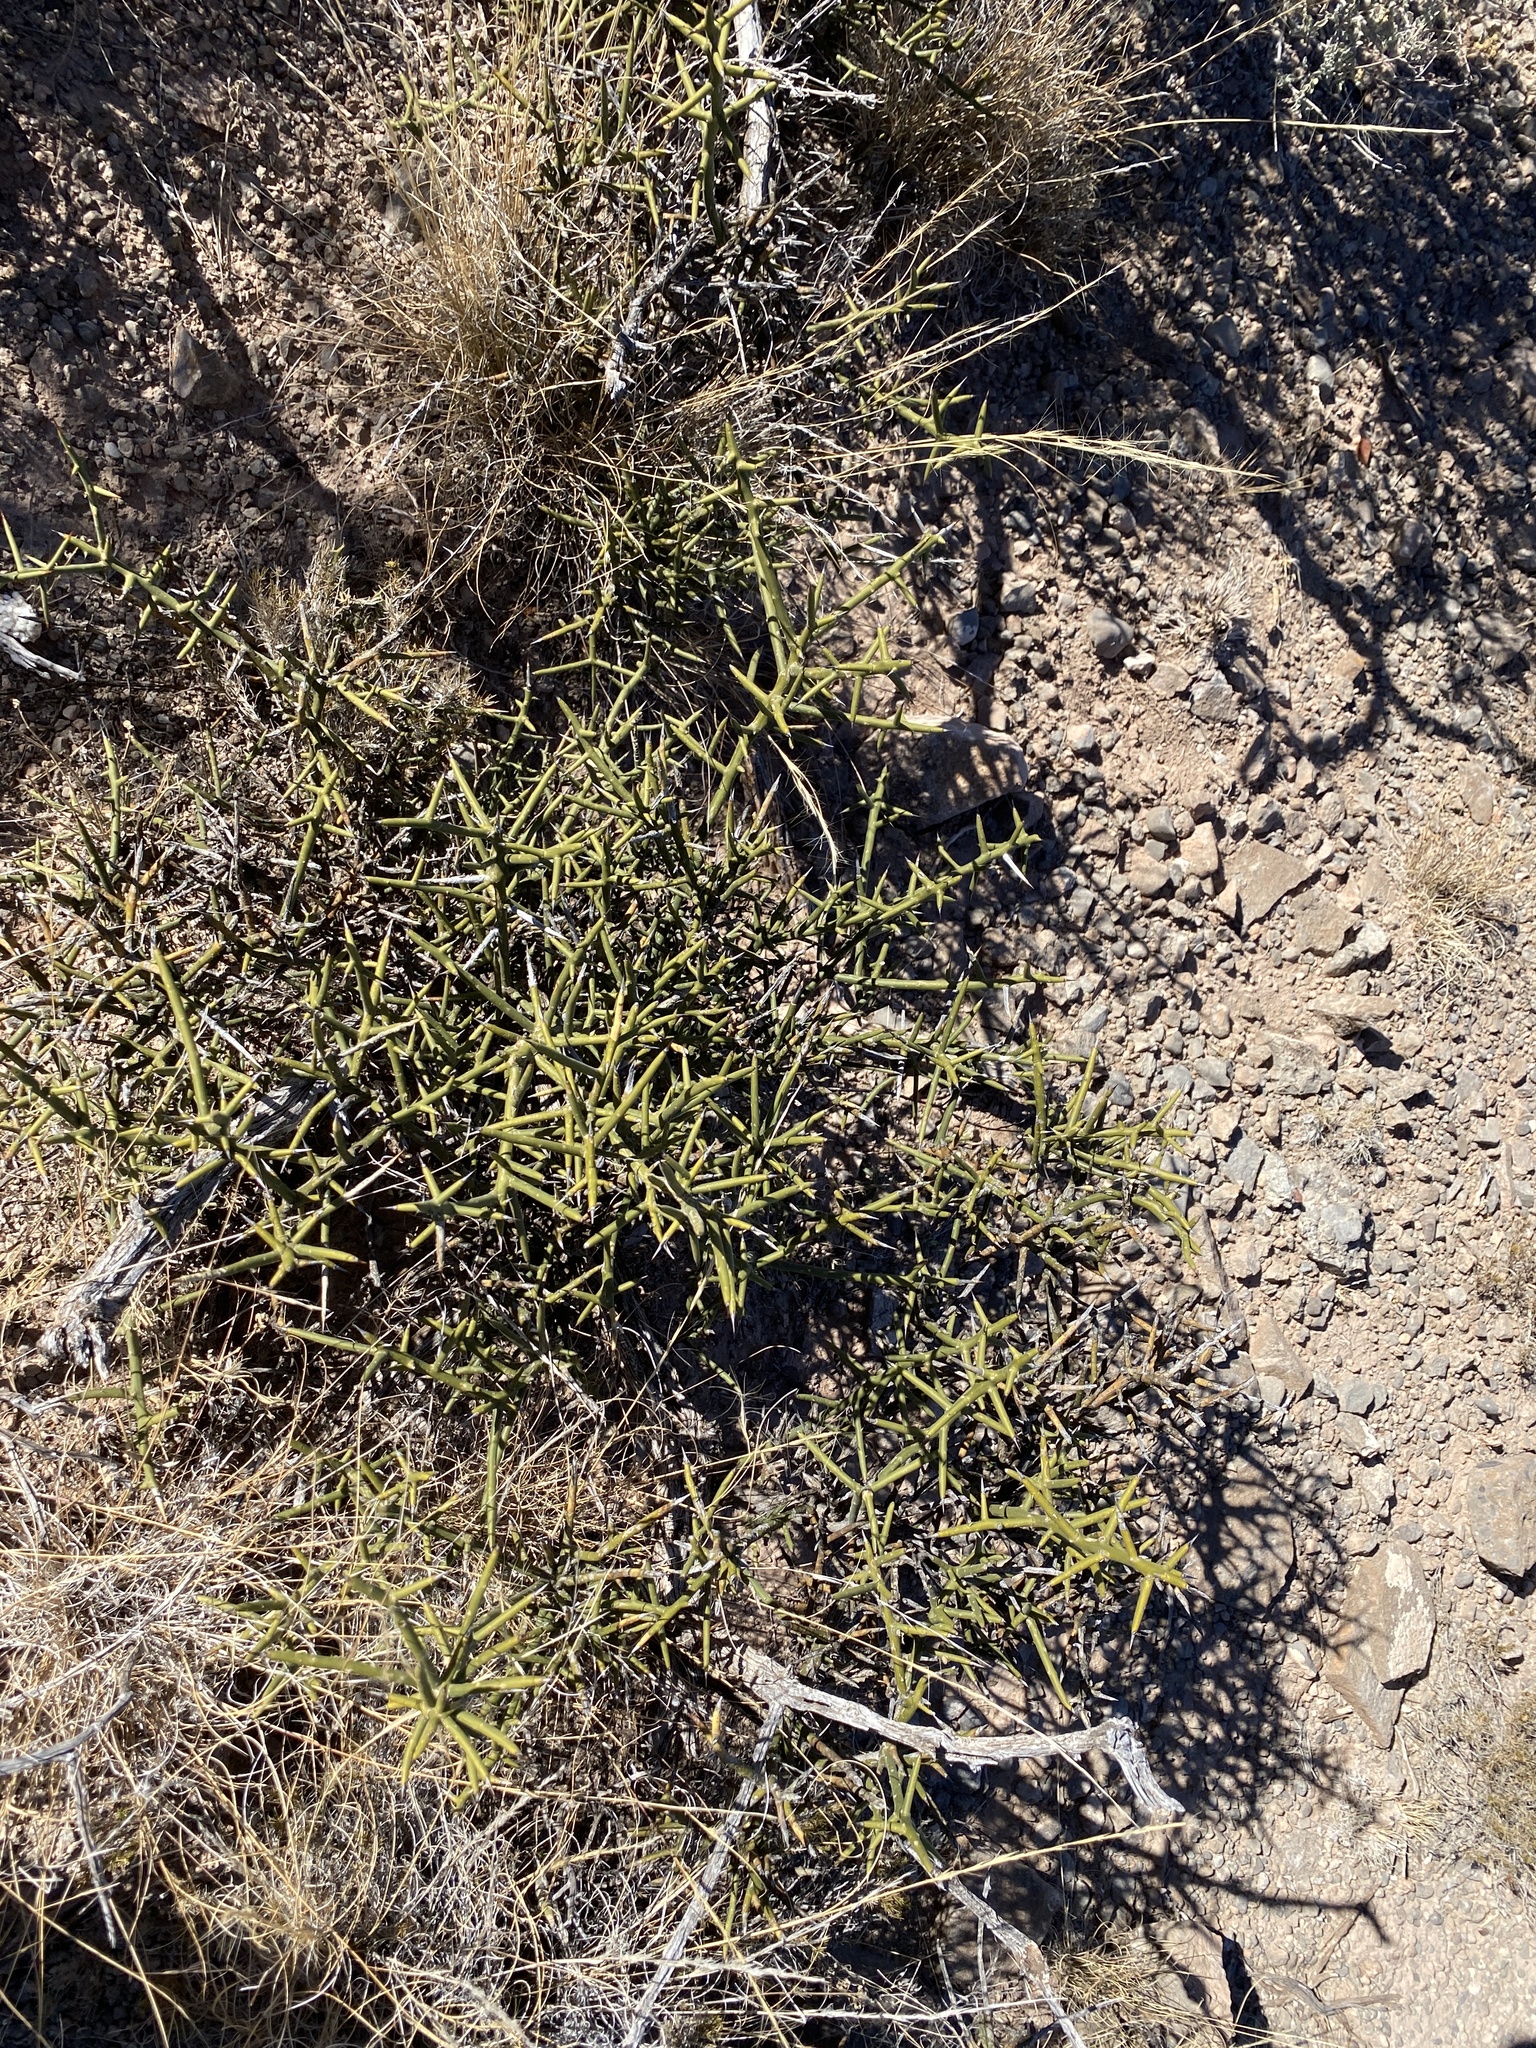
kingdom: Plantae
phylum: Tracheophyta
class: Magnoliopsida
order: Brassicales
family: Koeberliniaceae
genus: Koeberlinia
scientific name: Koeberlinia spinosa
